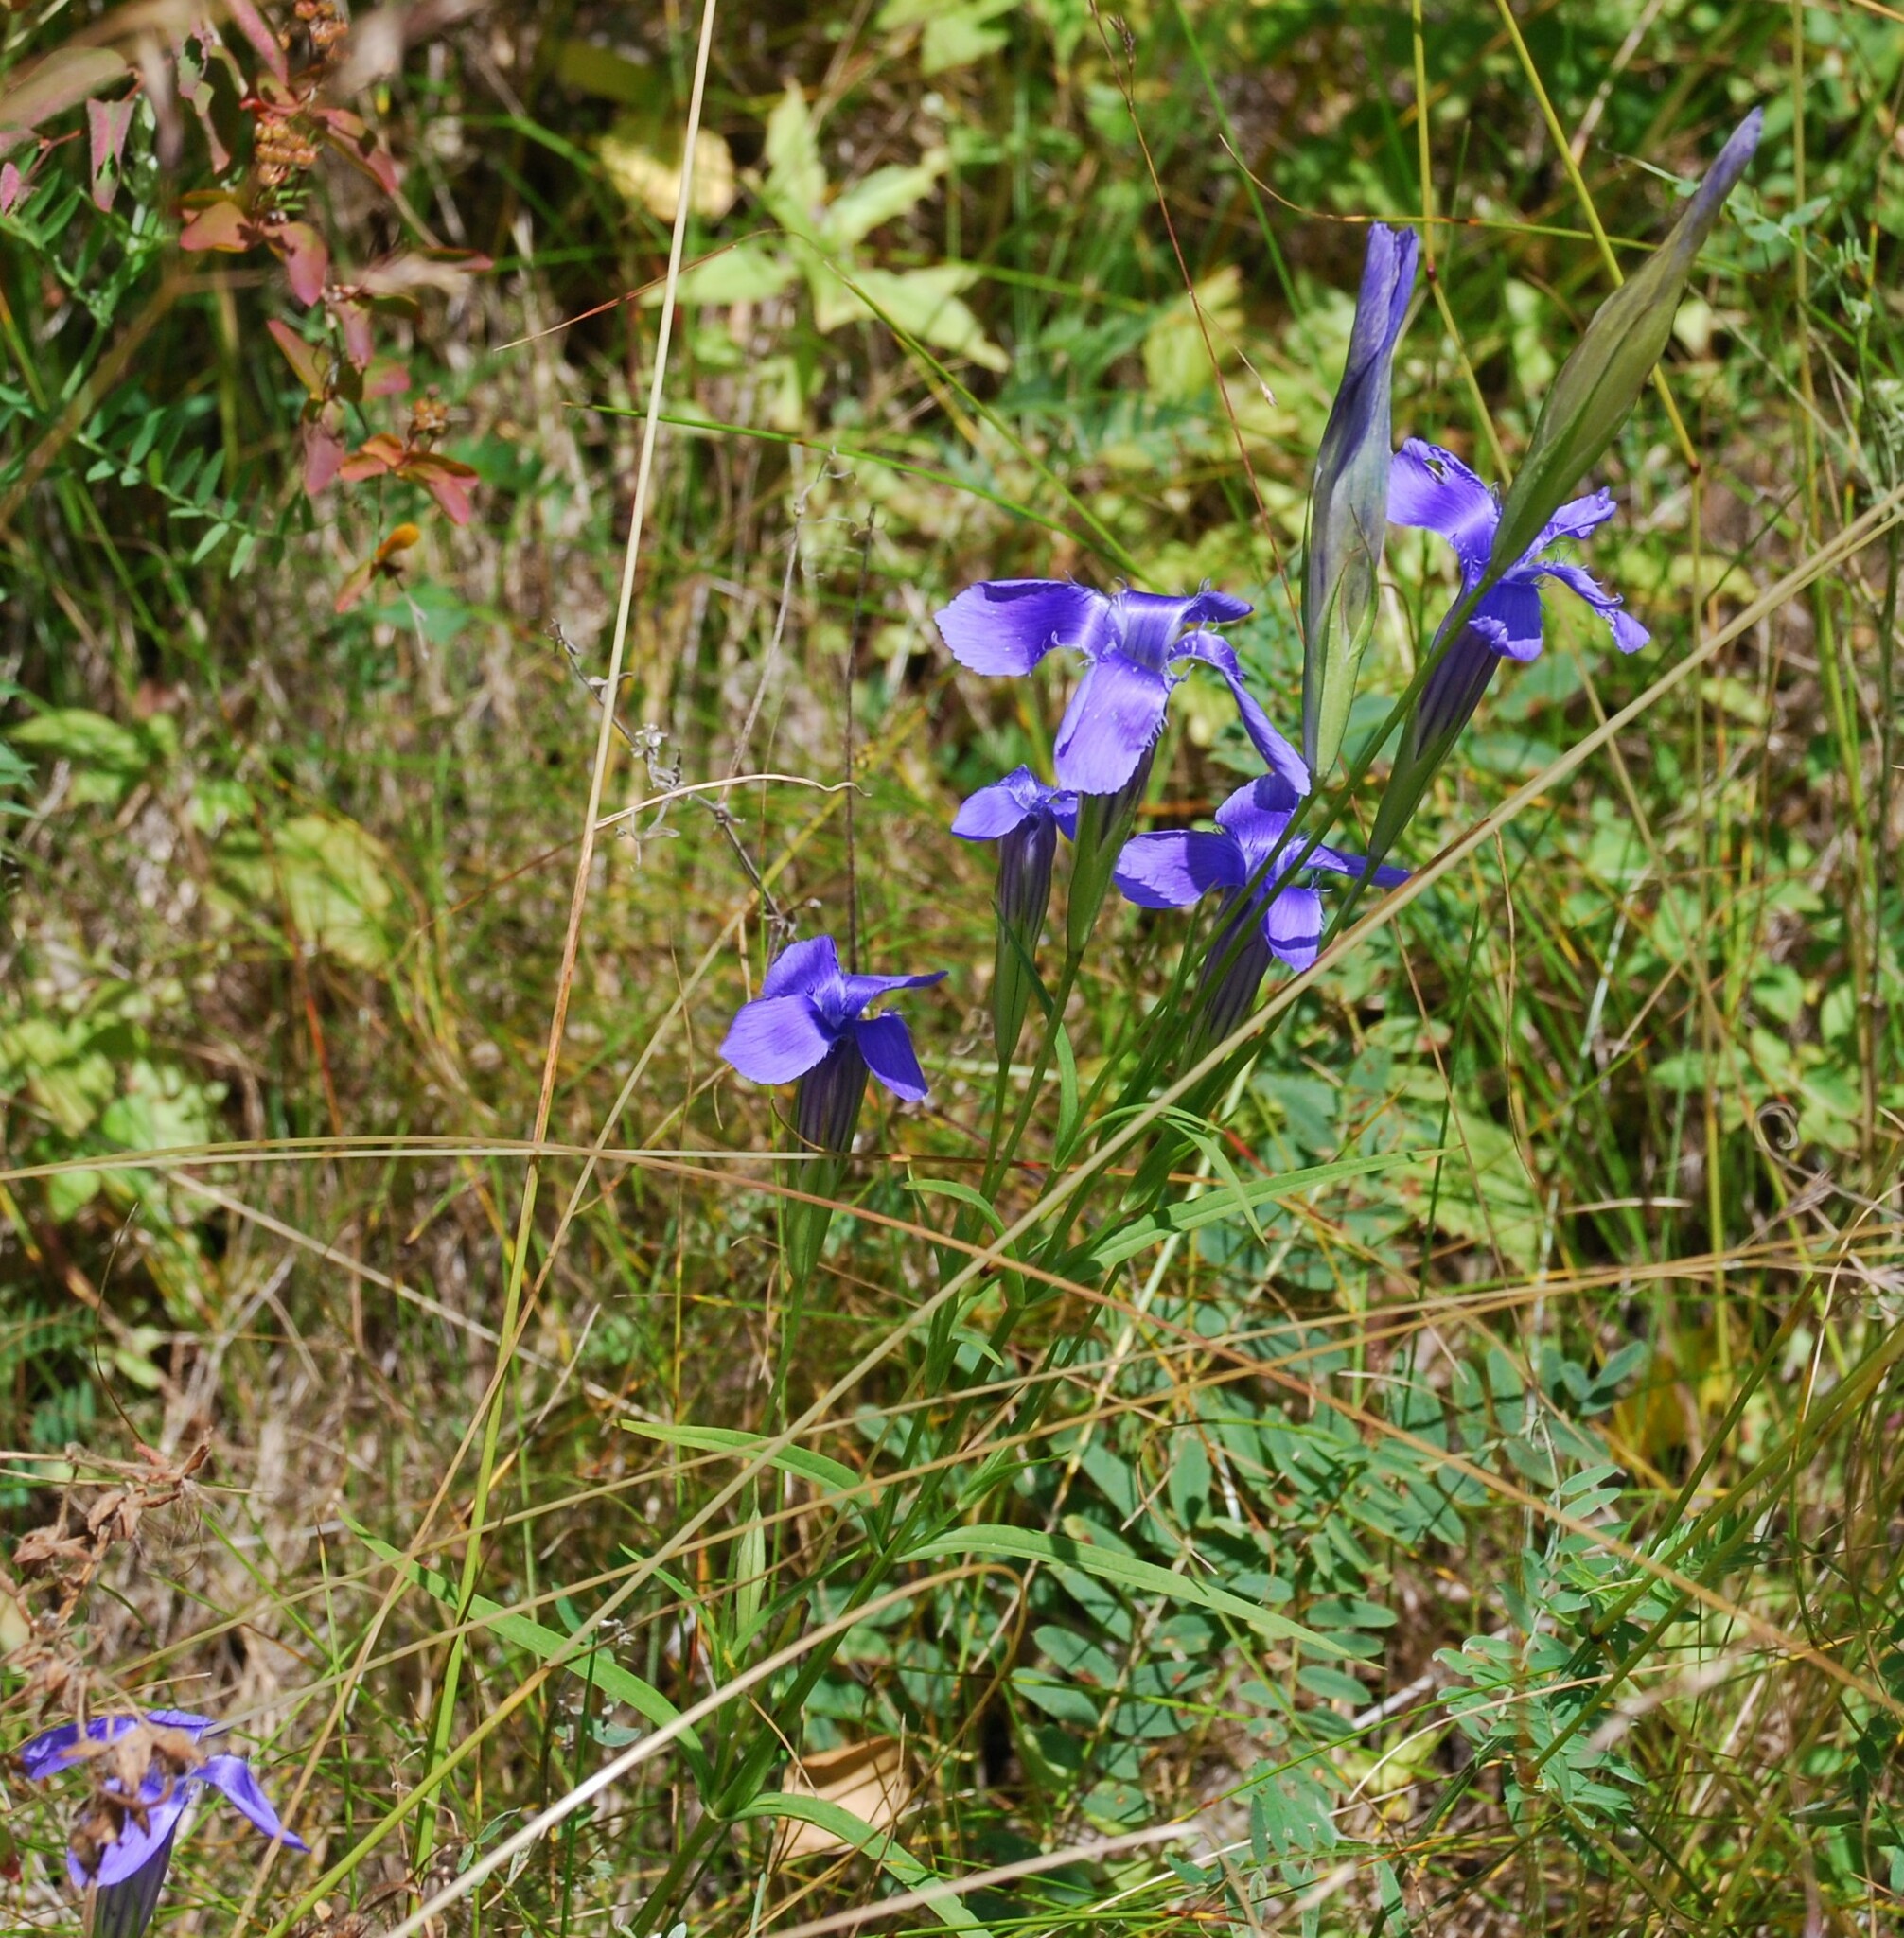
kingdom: Plantae
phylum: Tracheophyta
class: Magnoliopsida
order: Gentianales
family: Gentianaceae
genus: Gentianopsis
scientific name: Gentianopsis barbata
